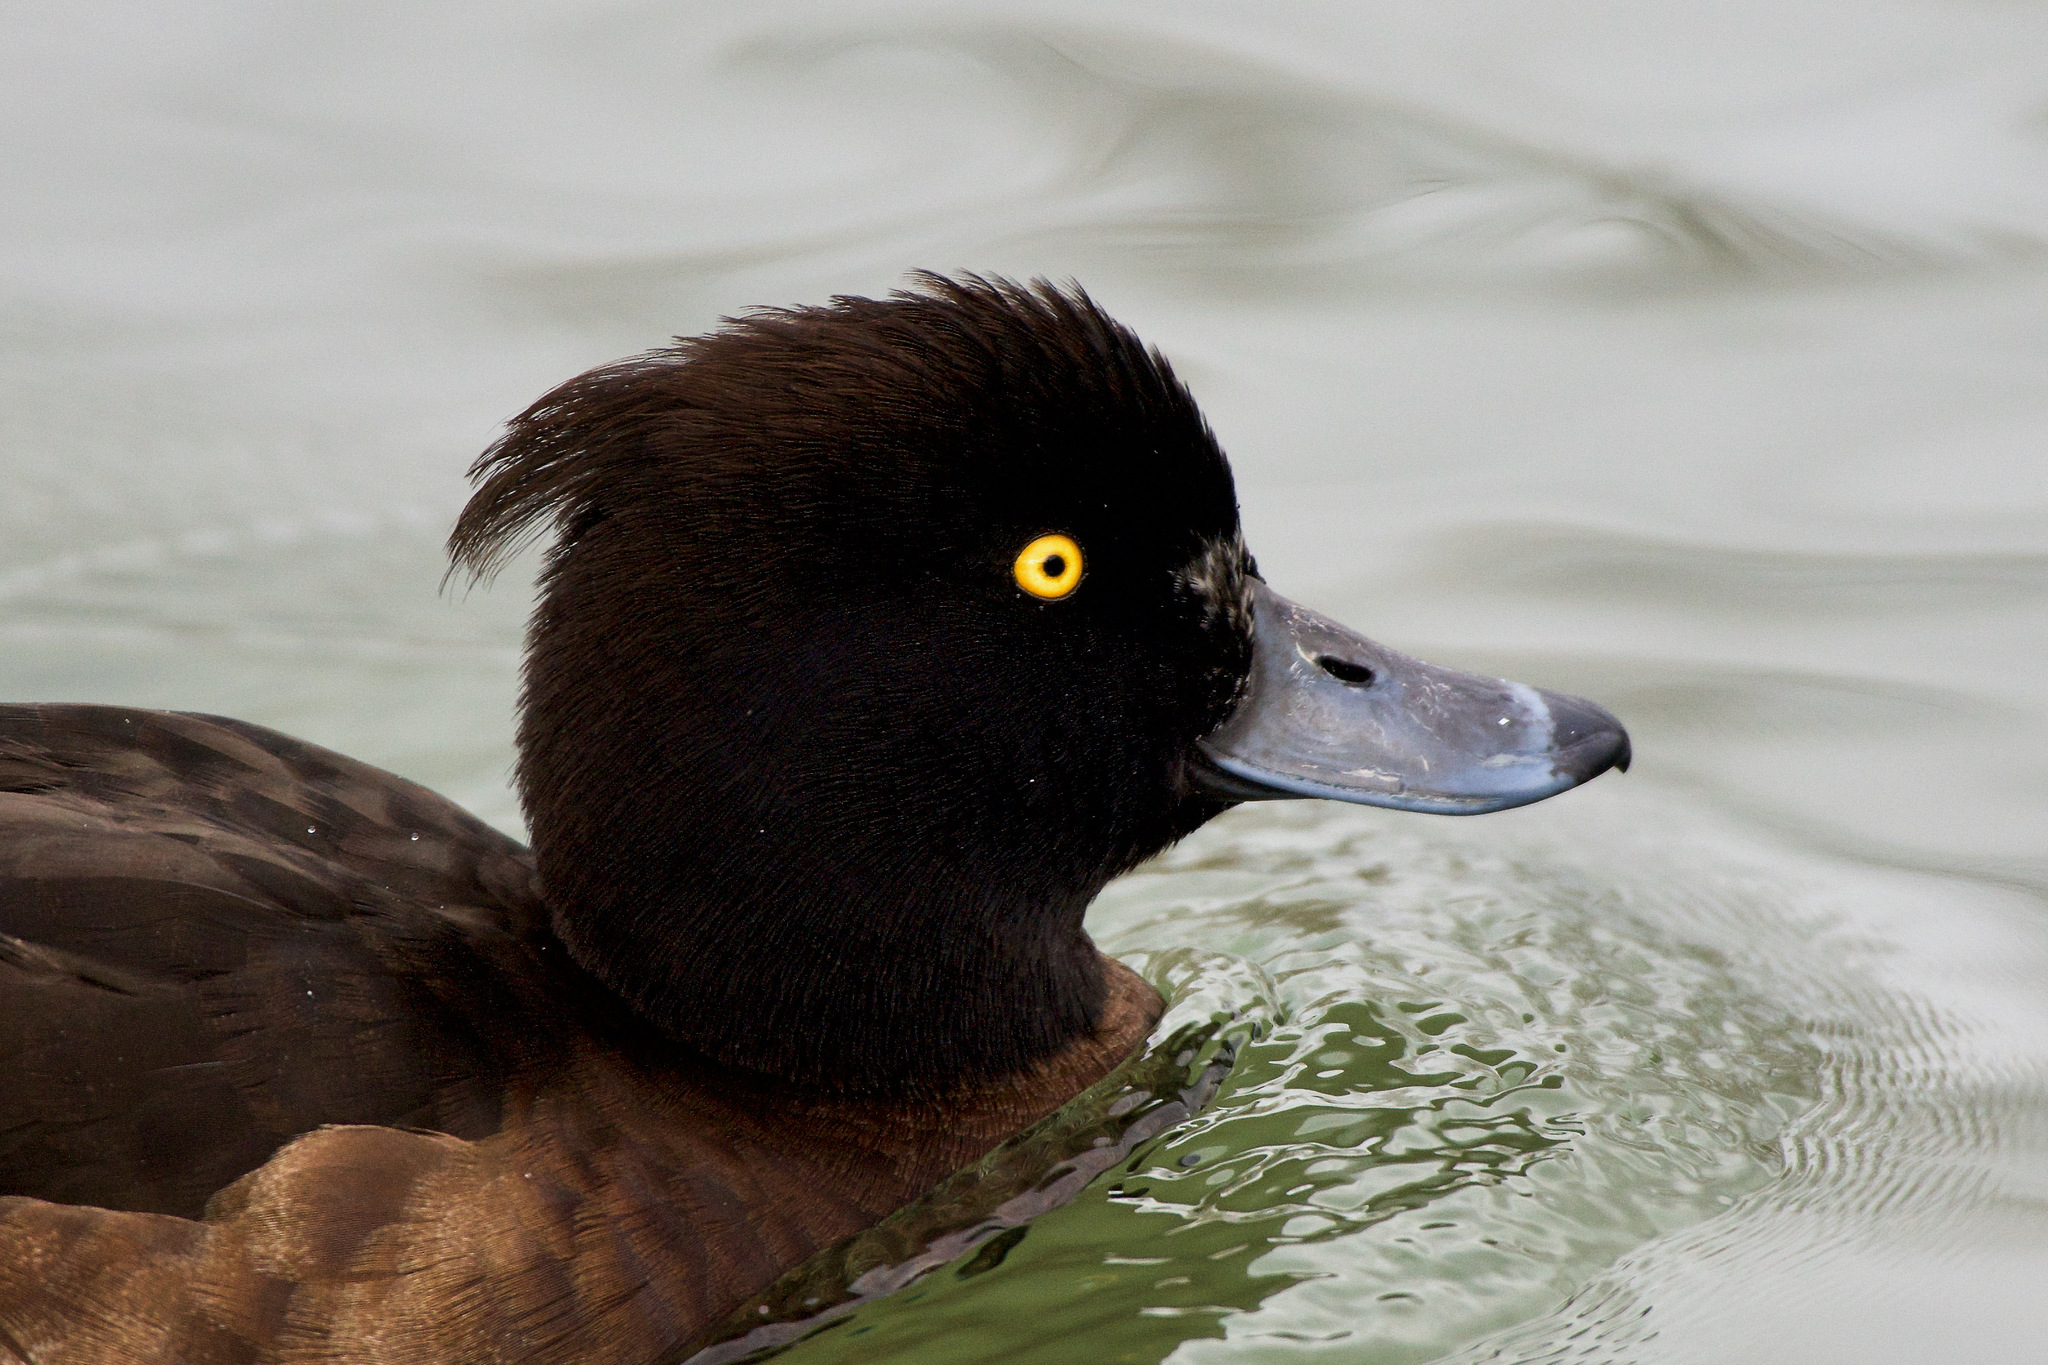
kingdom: Animalia
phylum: Chordata
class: Aves
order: Anseriformes
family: Anatidae
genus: Aythya
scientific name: Aythya fuligula
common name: Tufted duck
